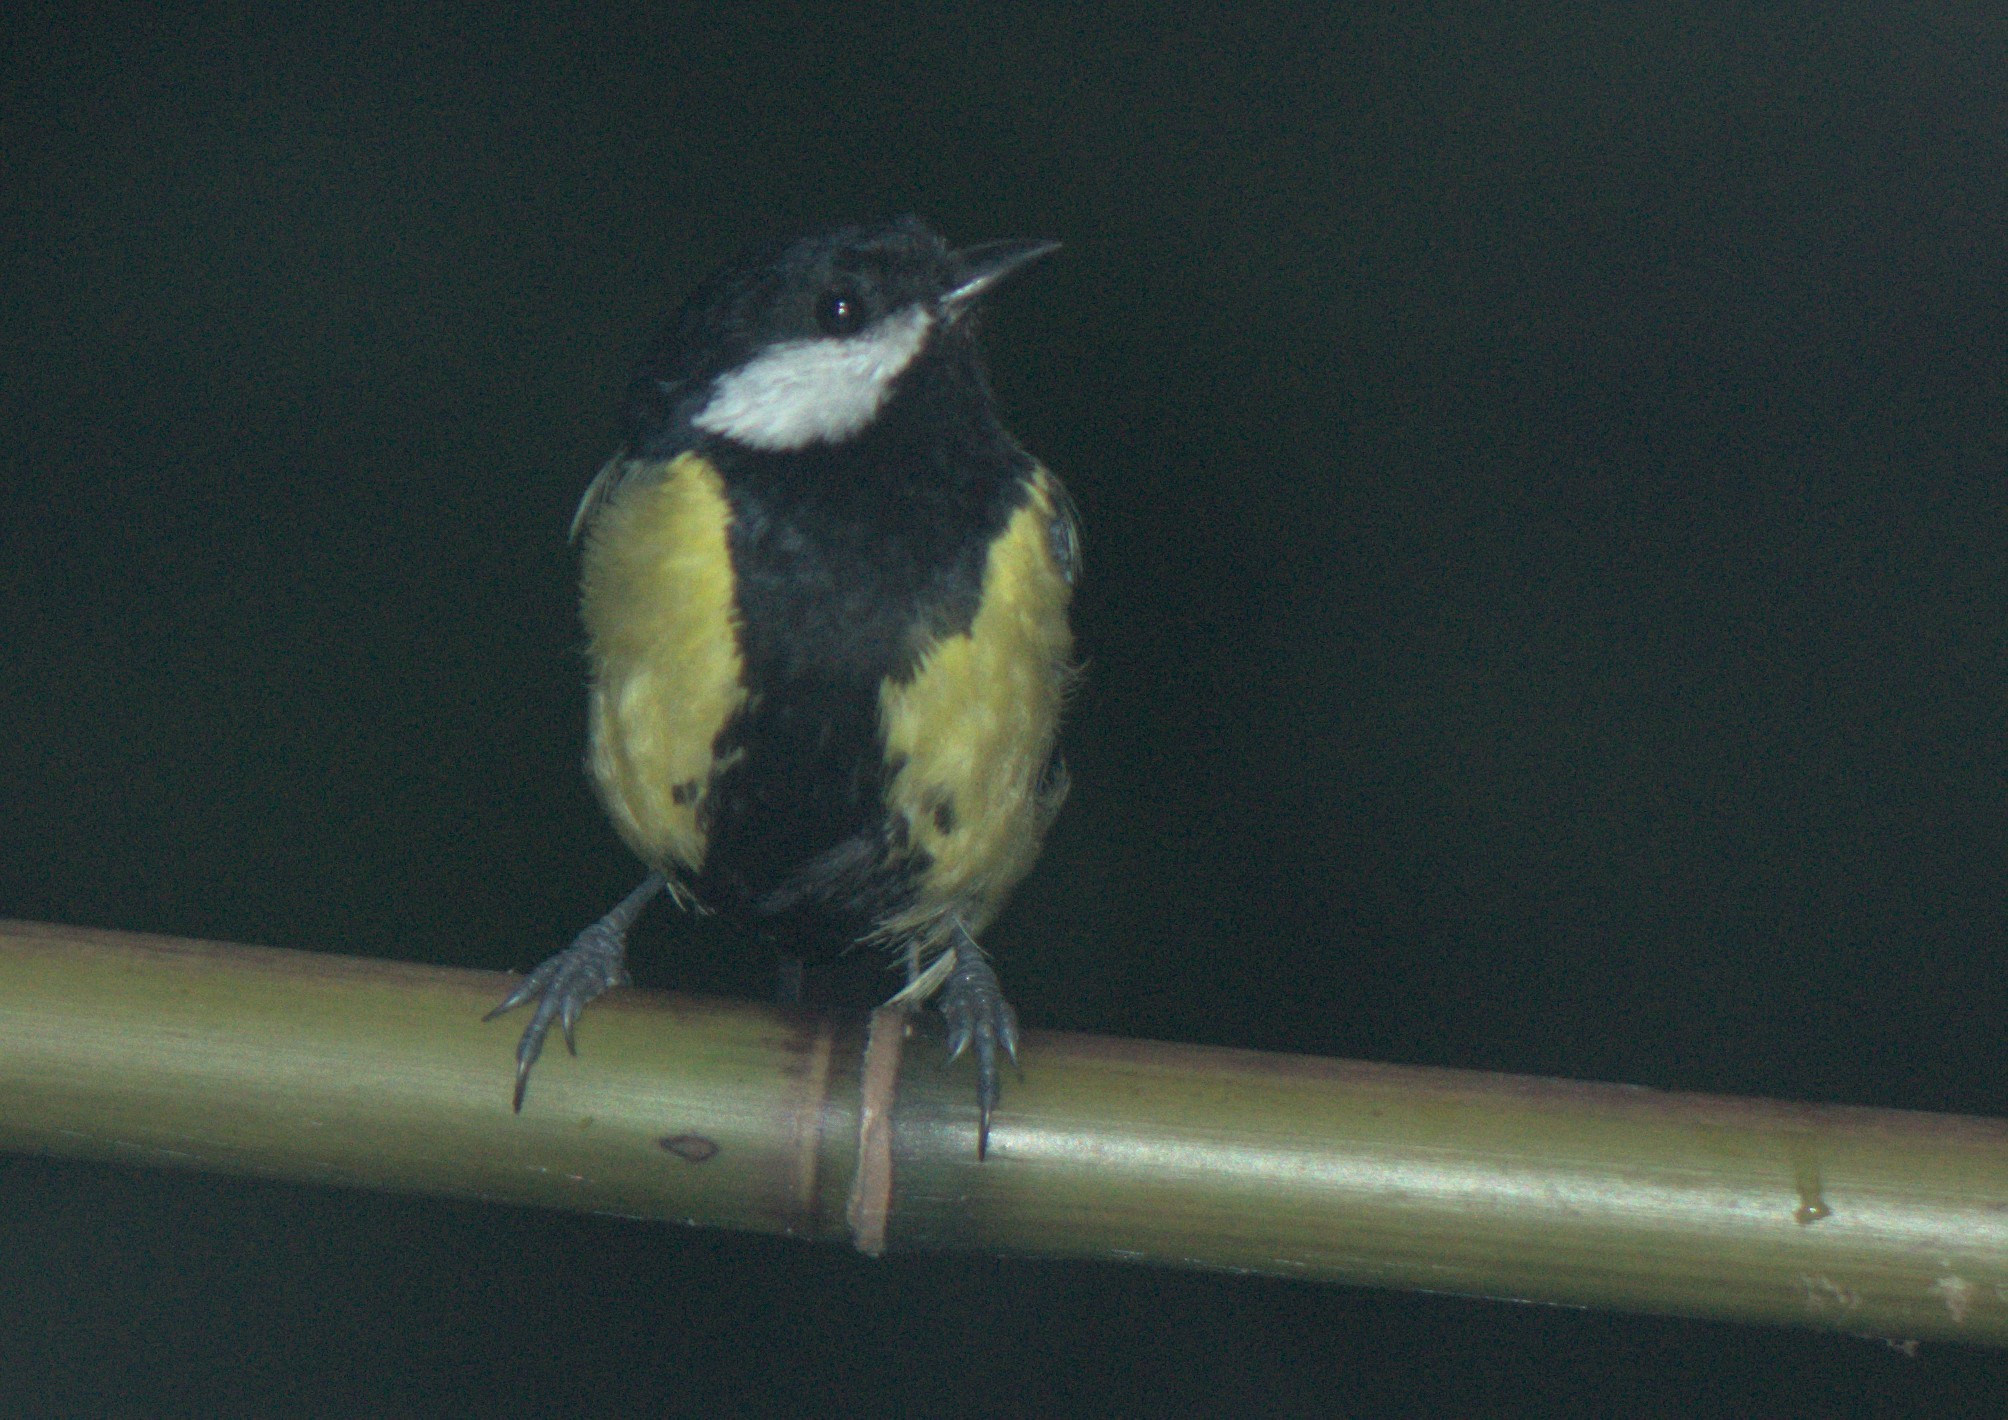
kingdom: Animalia
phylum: Chordata
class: Aves
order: Passeriformes
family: Paridae
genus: Parus
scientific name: Parus monticolus
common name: Green-backed tit
